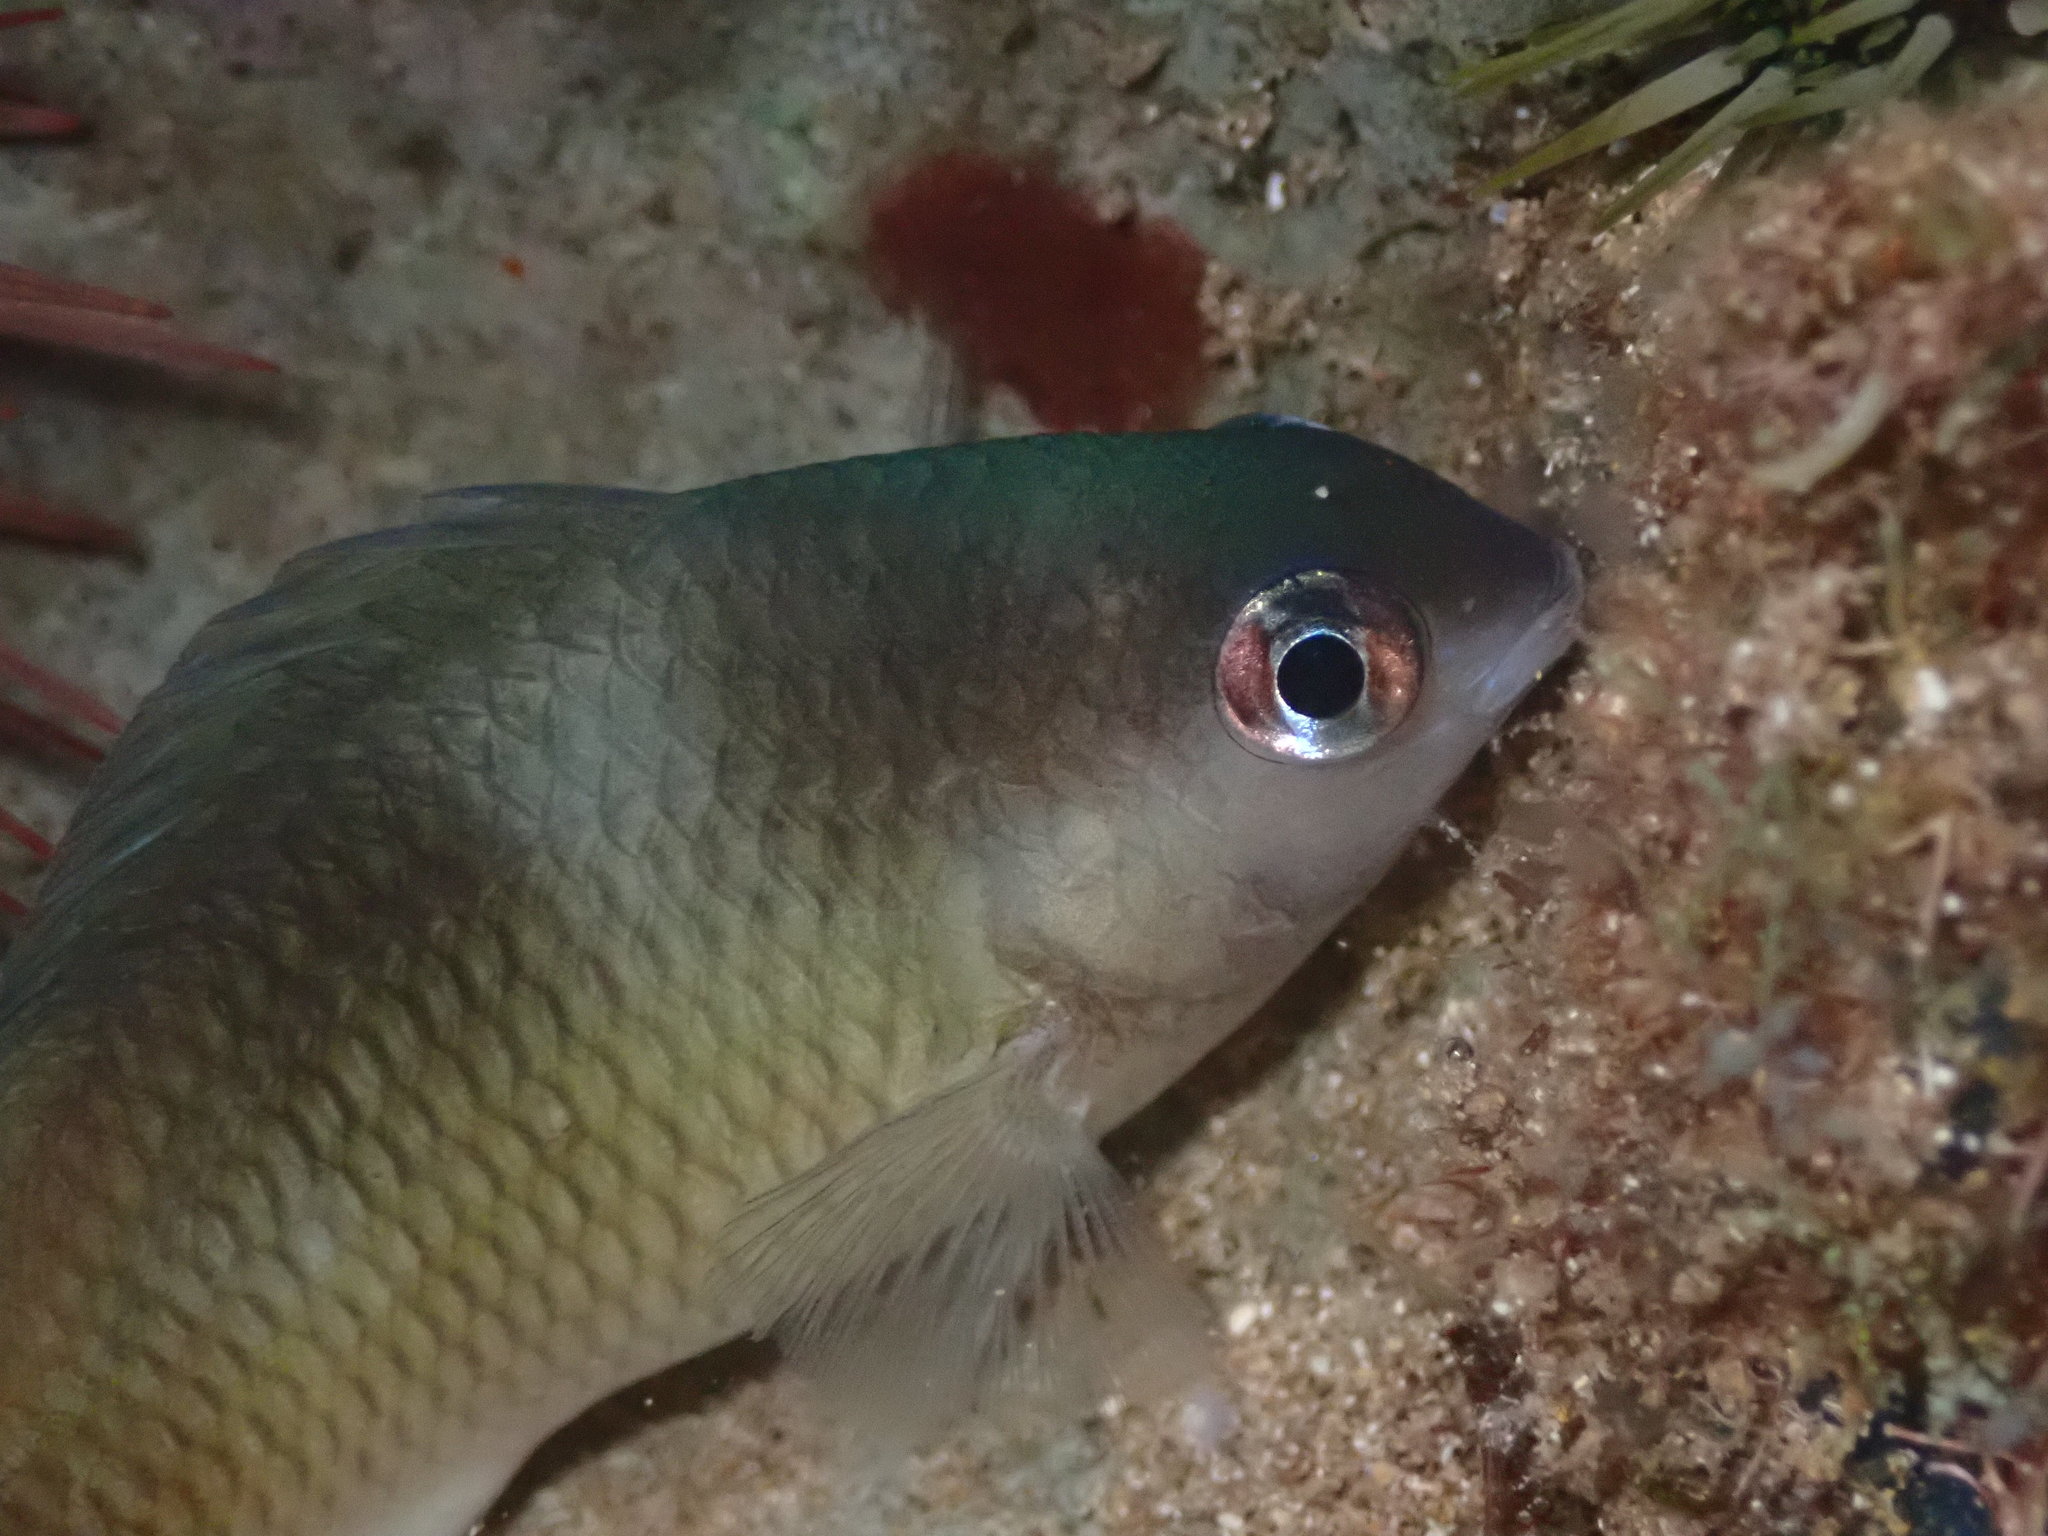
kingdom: Animalia
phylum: Chordata
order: Perciformes
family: Pomacentridae
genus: Plectroglyphidodon
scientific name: Plectroglyphidodon imparipennis
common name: Brighteye damsel
